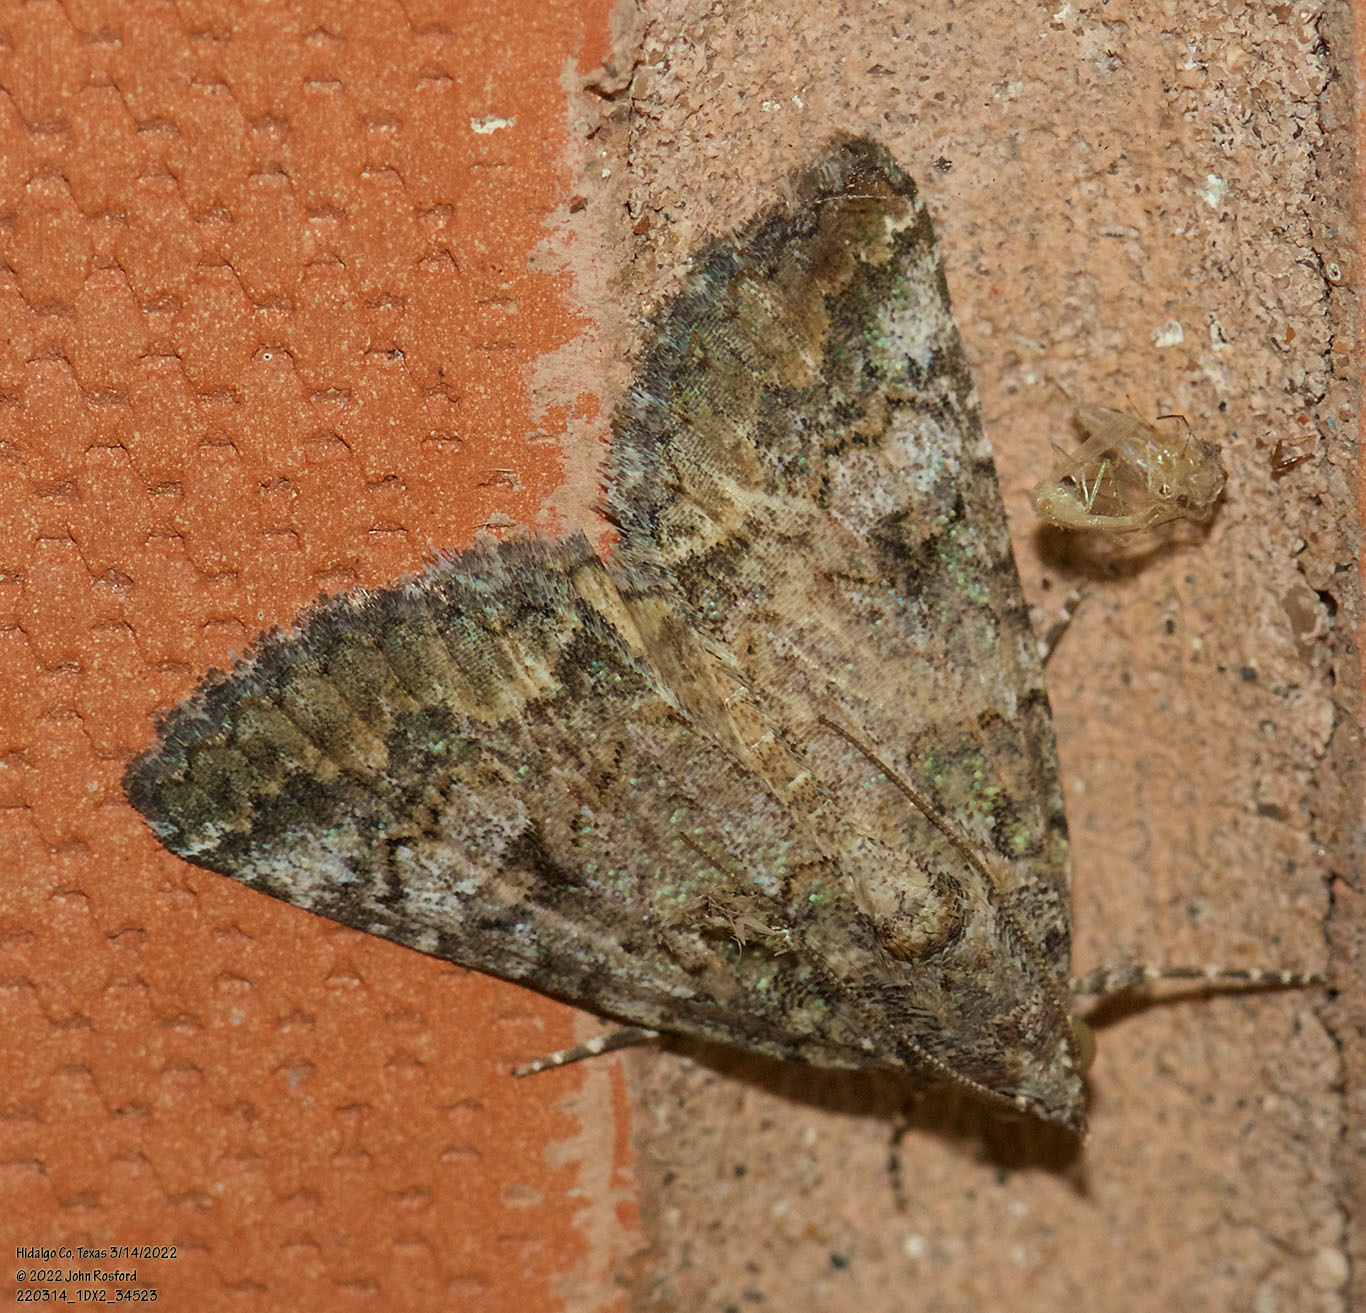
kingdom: Animalia
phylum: Arthropoda
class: Insecta
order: Lepidoptera
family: Erebidae
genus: Eubolina
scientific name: Eubolina impartialis
